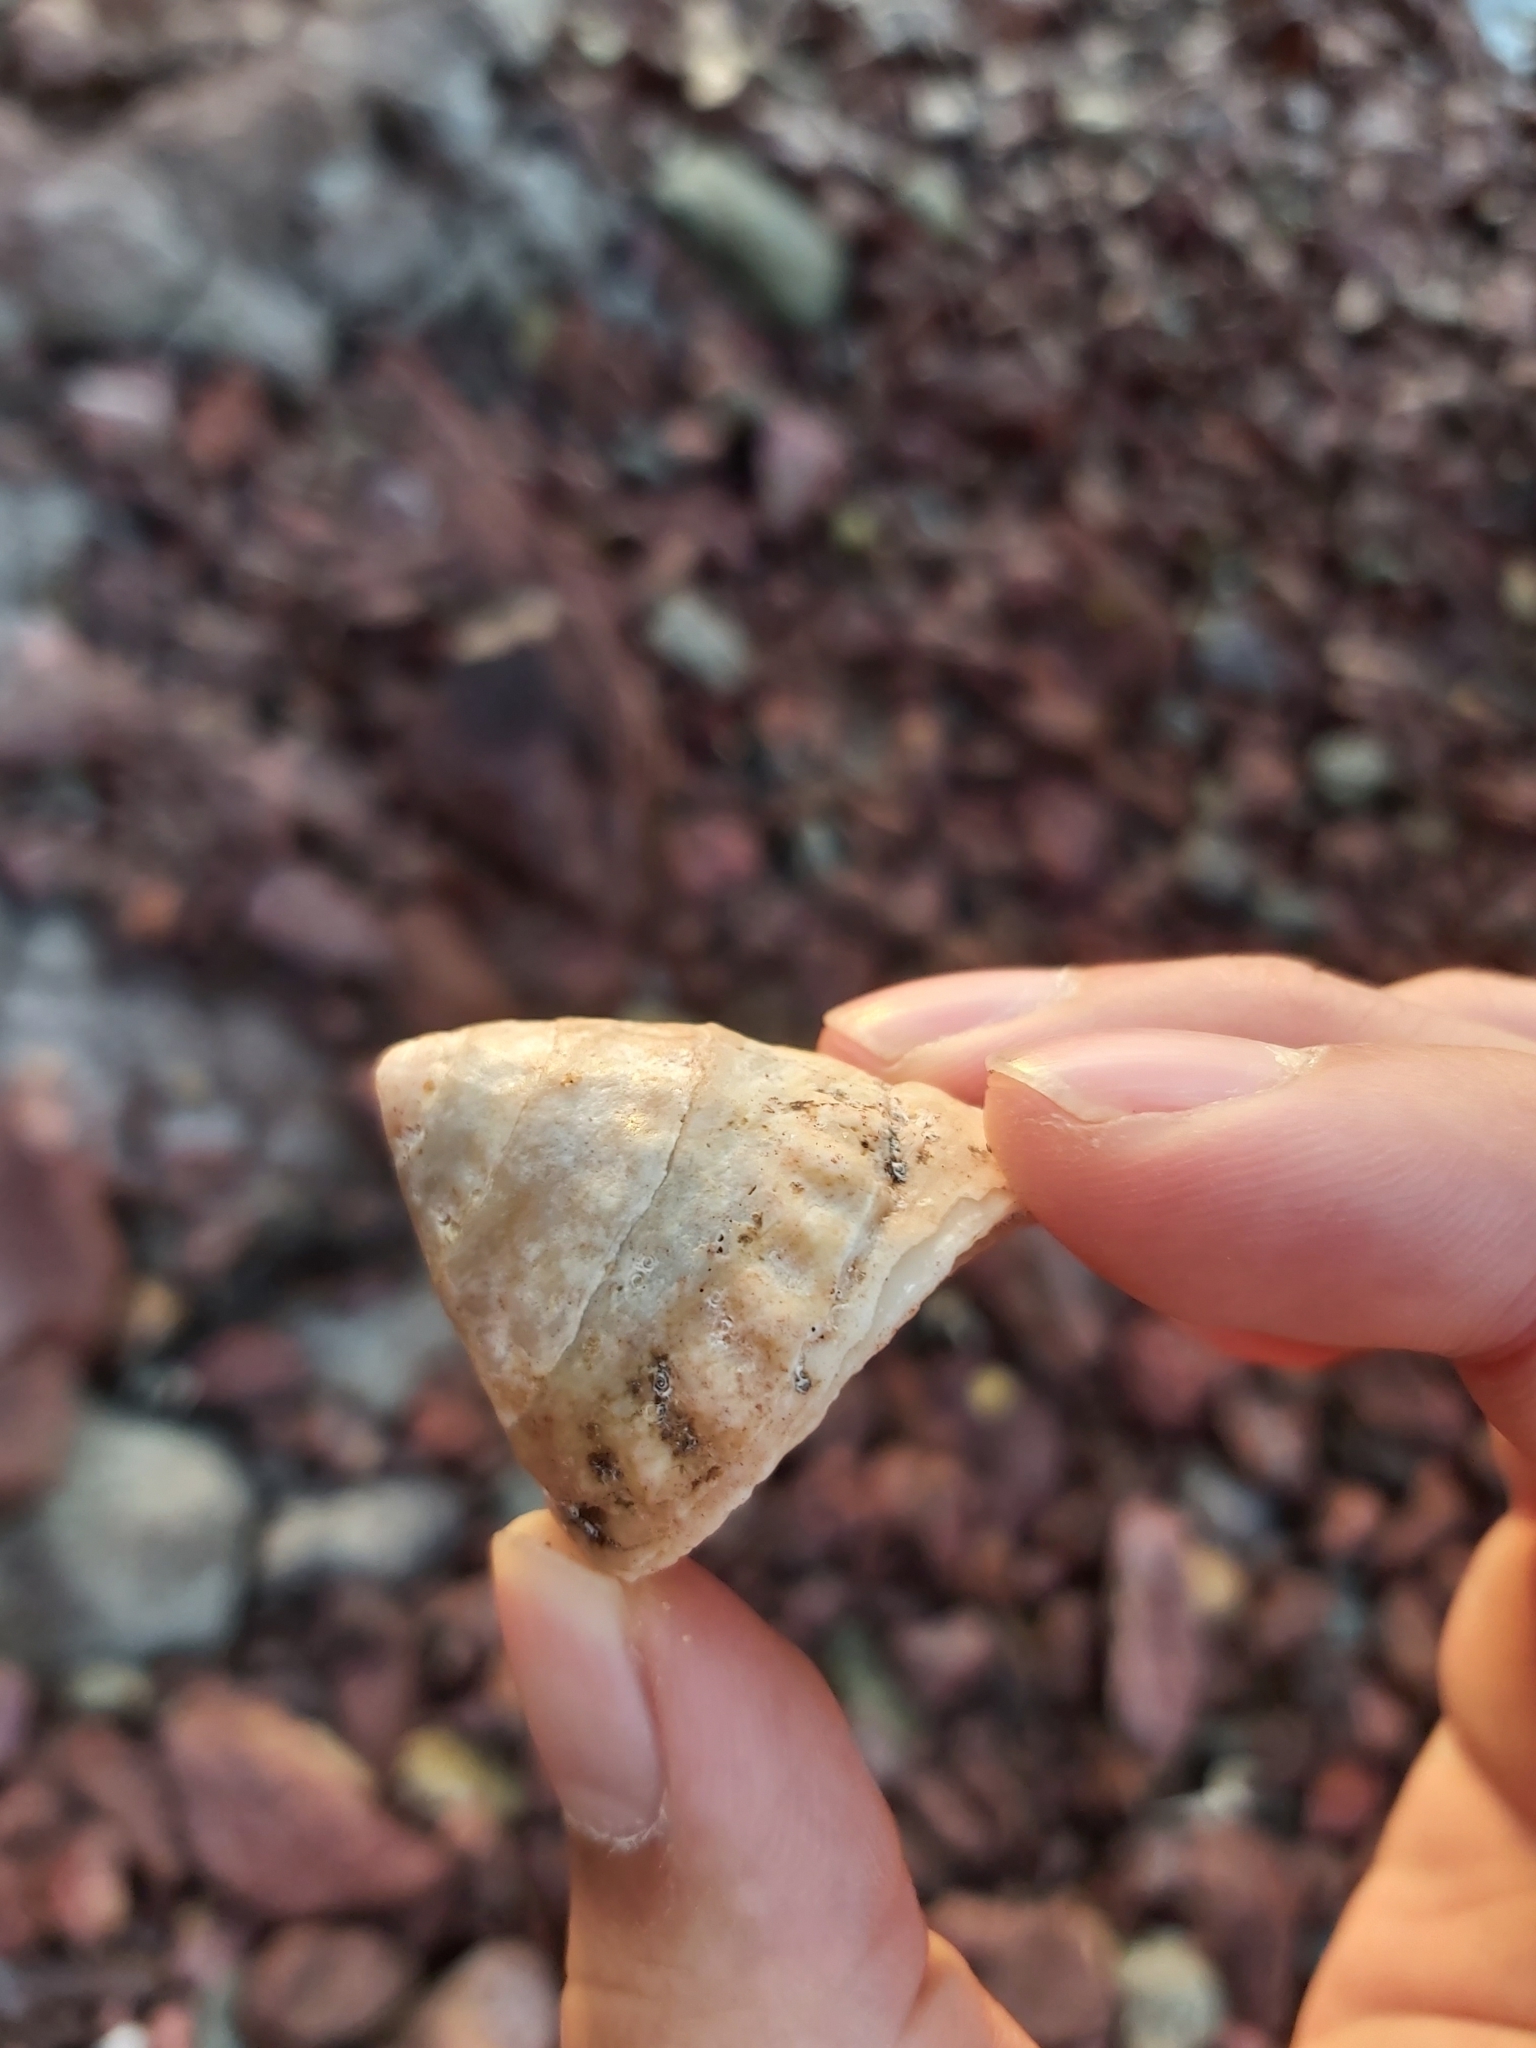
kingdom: Animalia
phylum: Mollusca
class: Gastropoda
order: Trochida
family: Turbinidae
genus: Astralium
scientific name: Astralium tentoriiforme
